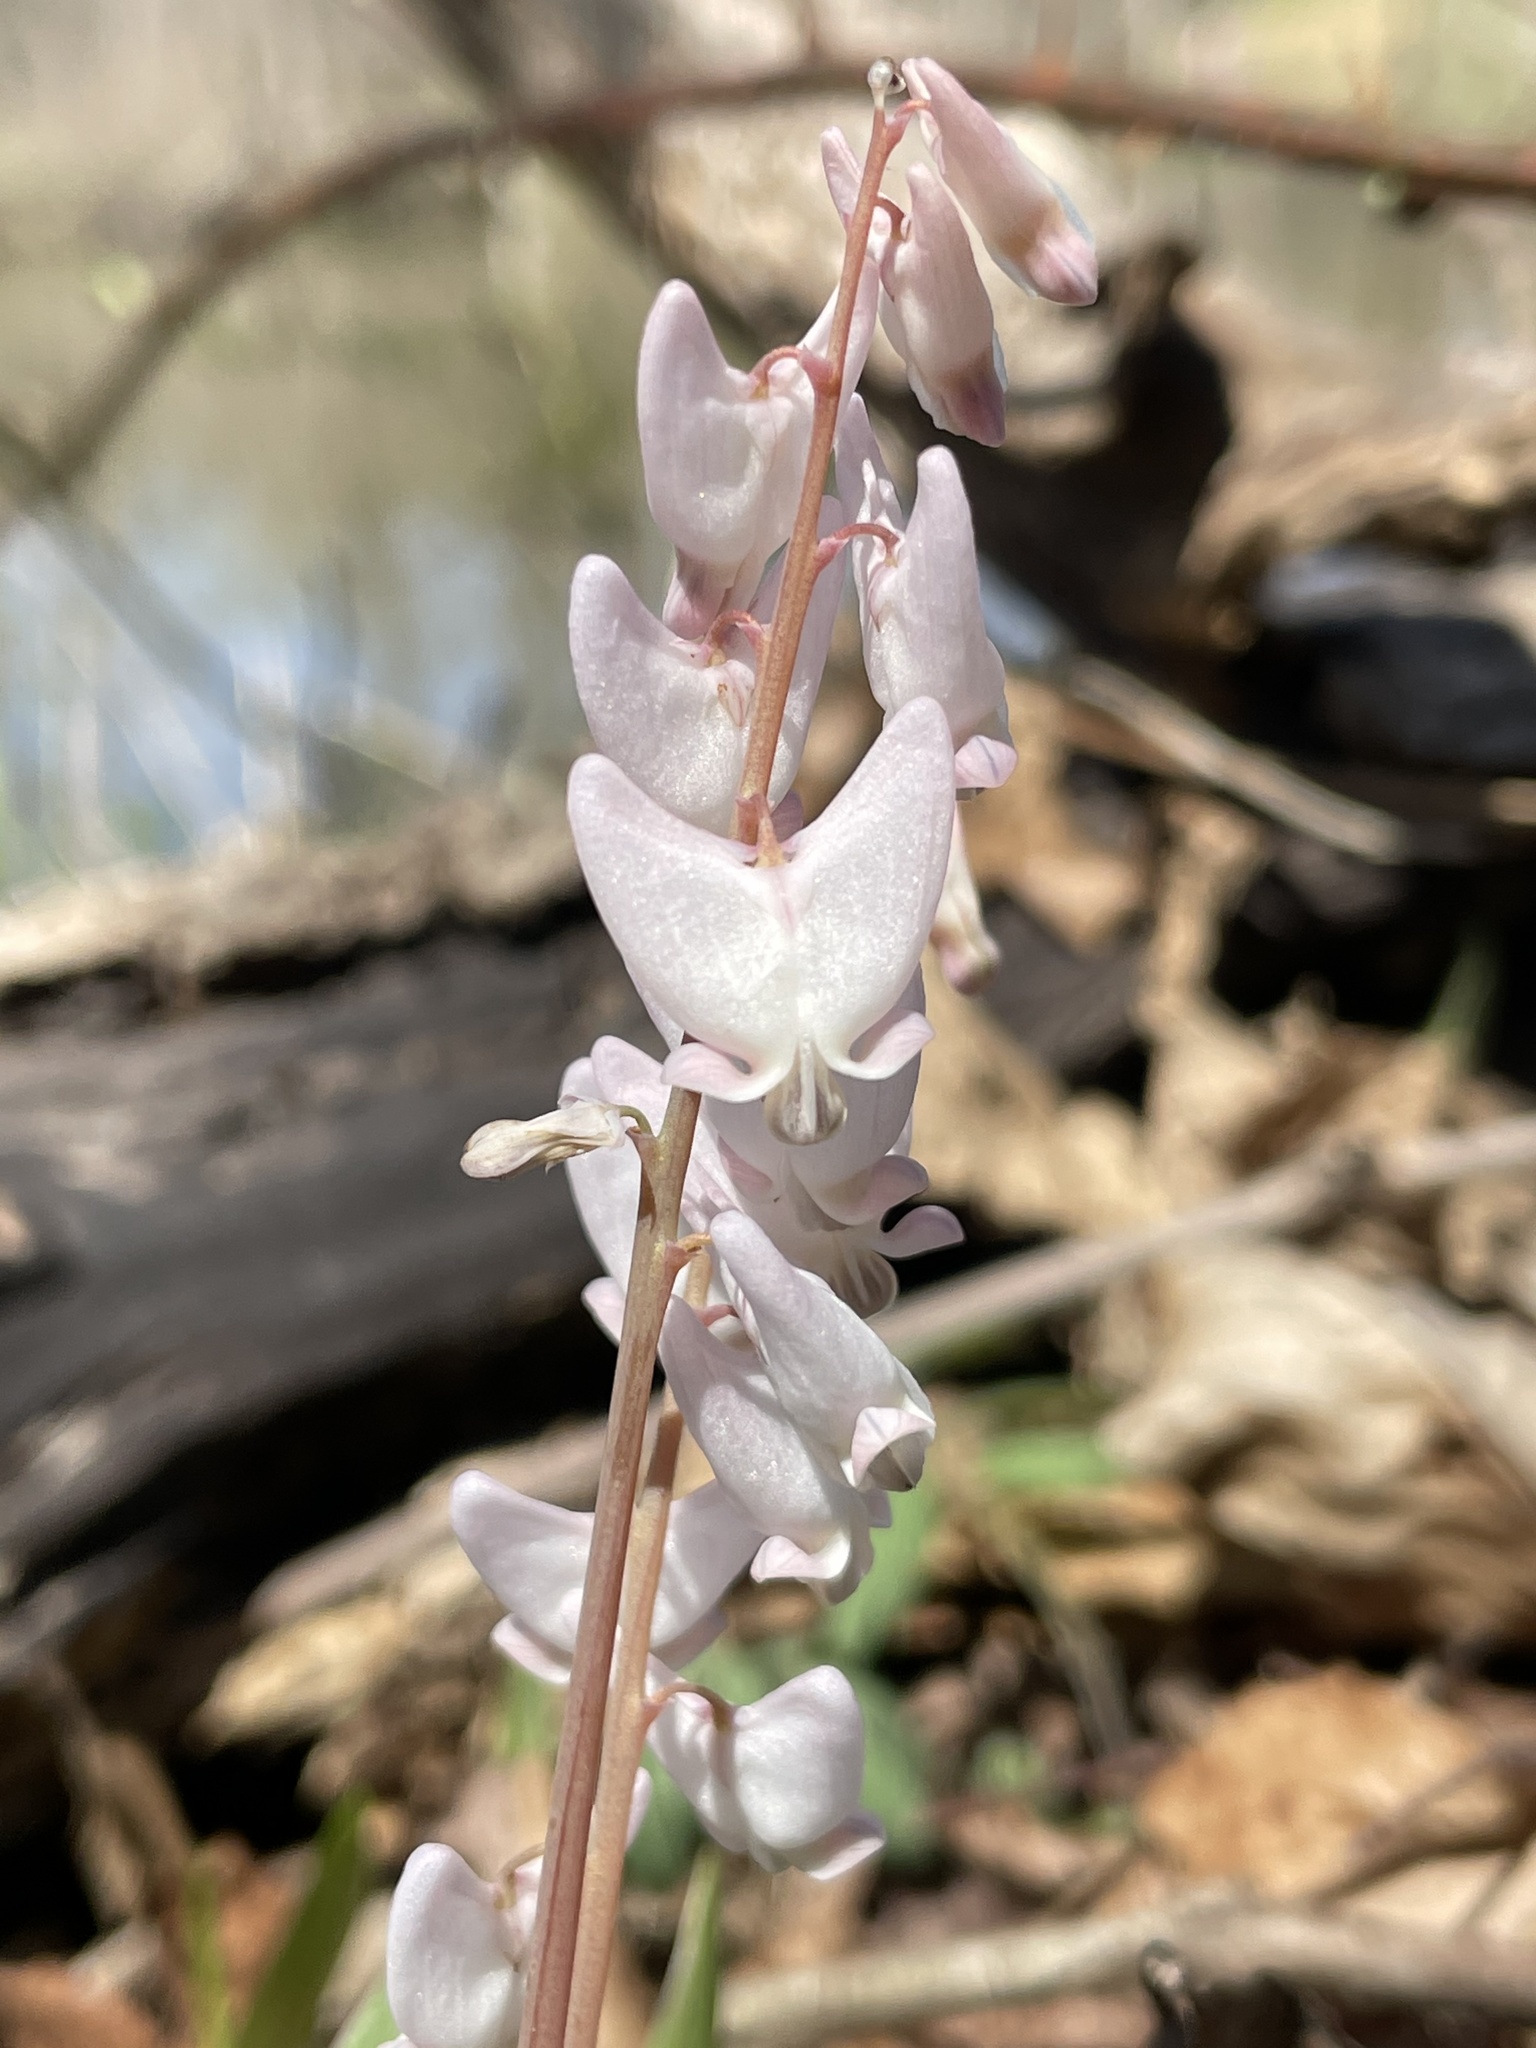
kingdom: Plantae
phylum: Tracheophyta
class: Magnoliopsida
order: Ranunculales
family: Papaveraceae
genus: Dicentra
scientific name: Dicentra cucullaria
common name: Dutchman's breeches
